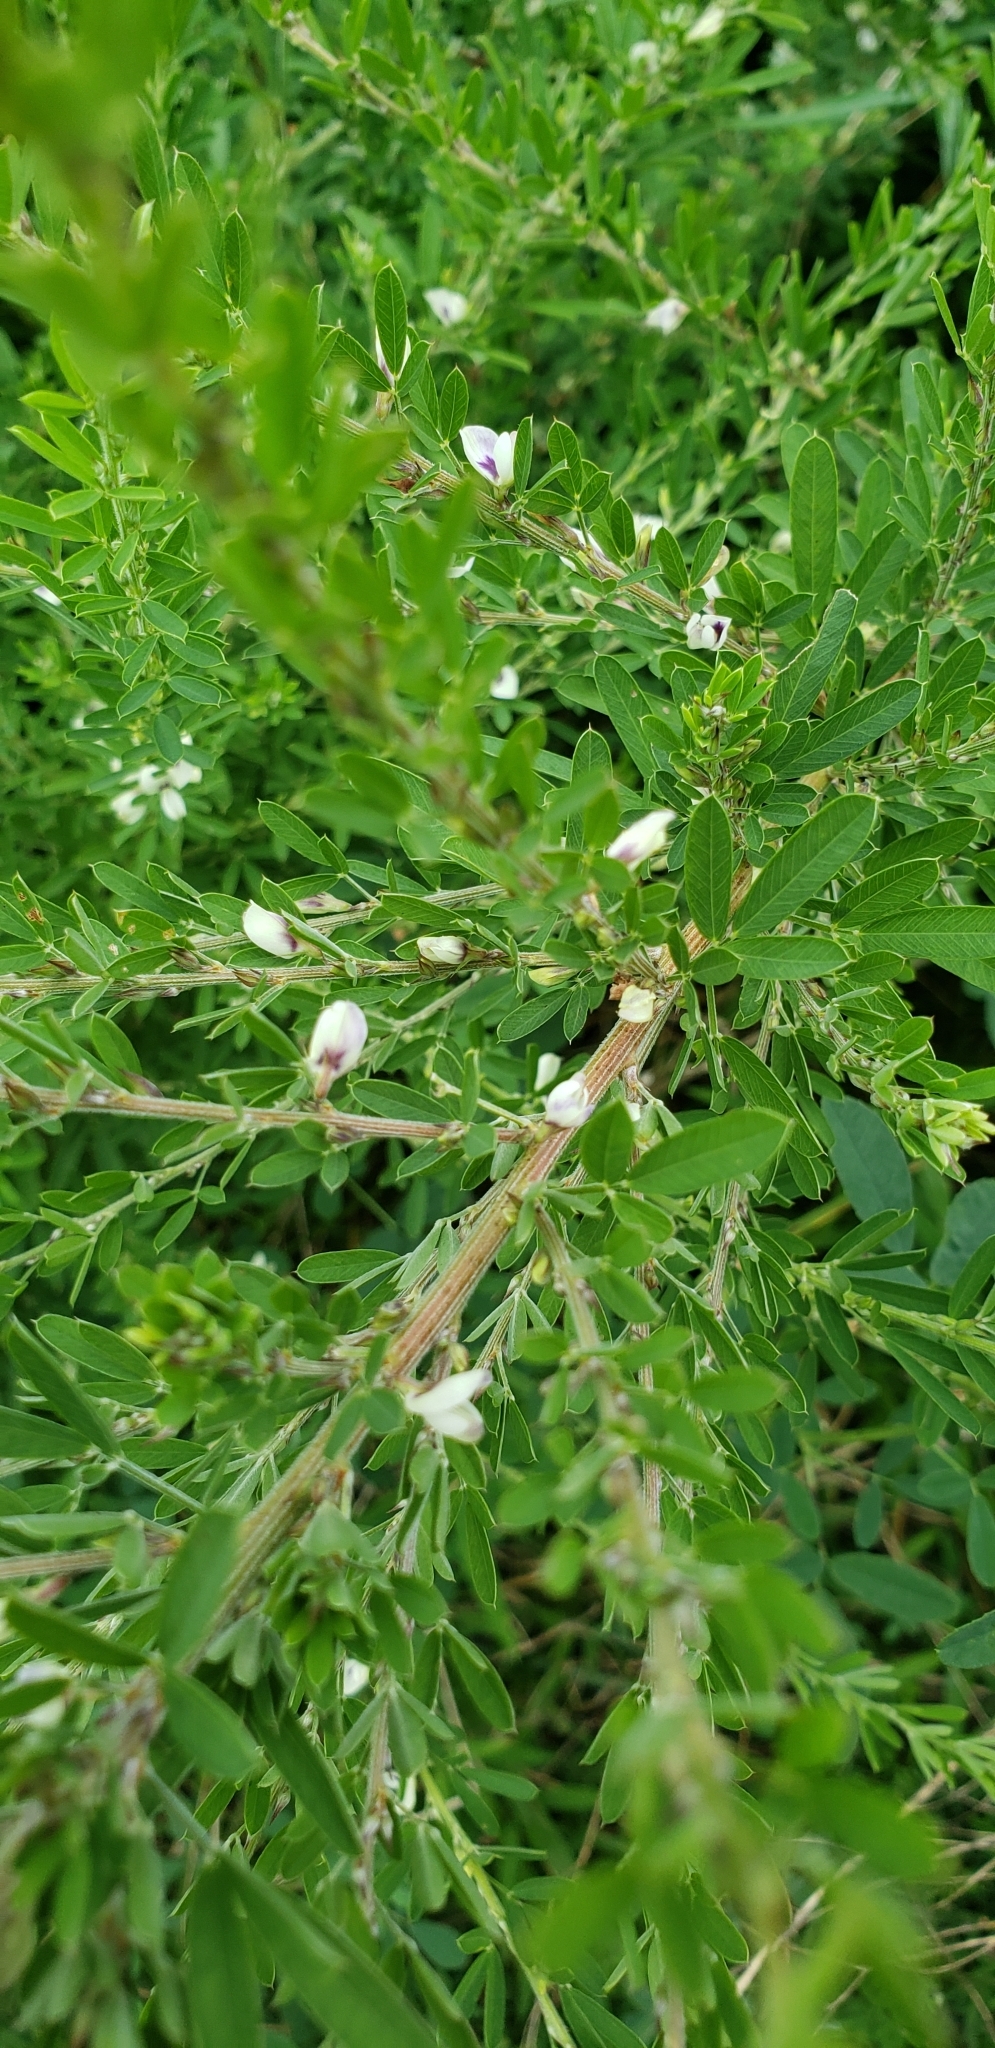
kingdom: Plantae
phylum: Tracheophyta
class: Magnoliopsida
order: Fabales
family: Fabaceae
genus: Lespedeza
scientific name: Lespedeza cuneata
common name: Chinese bush-clover
